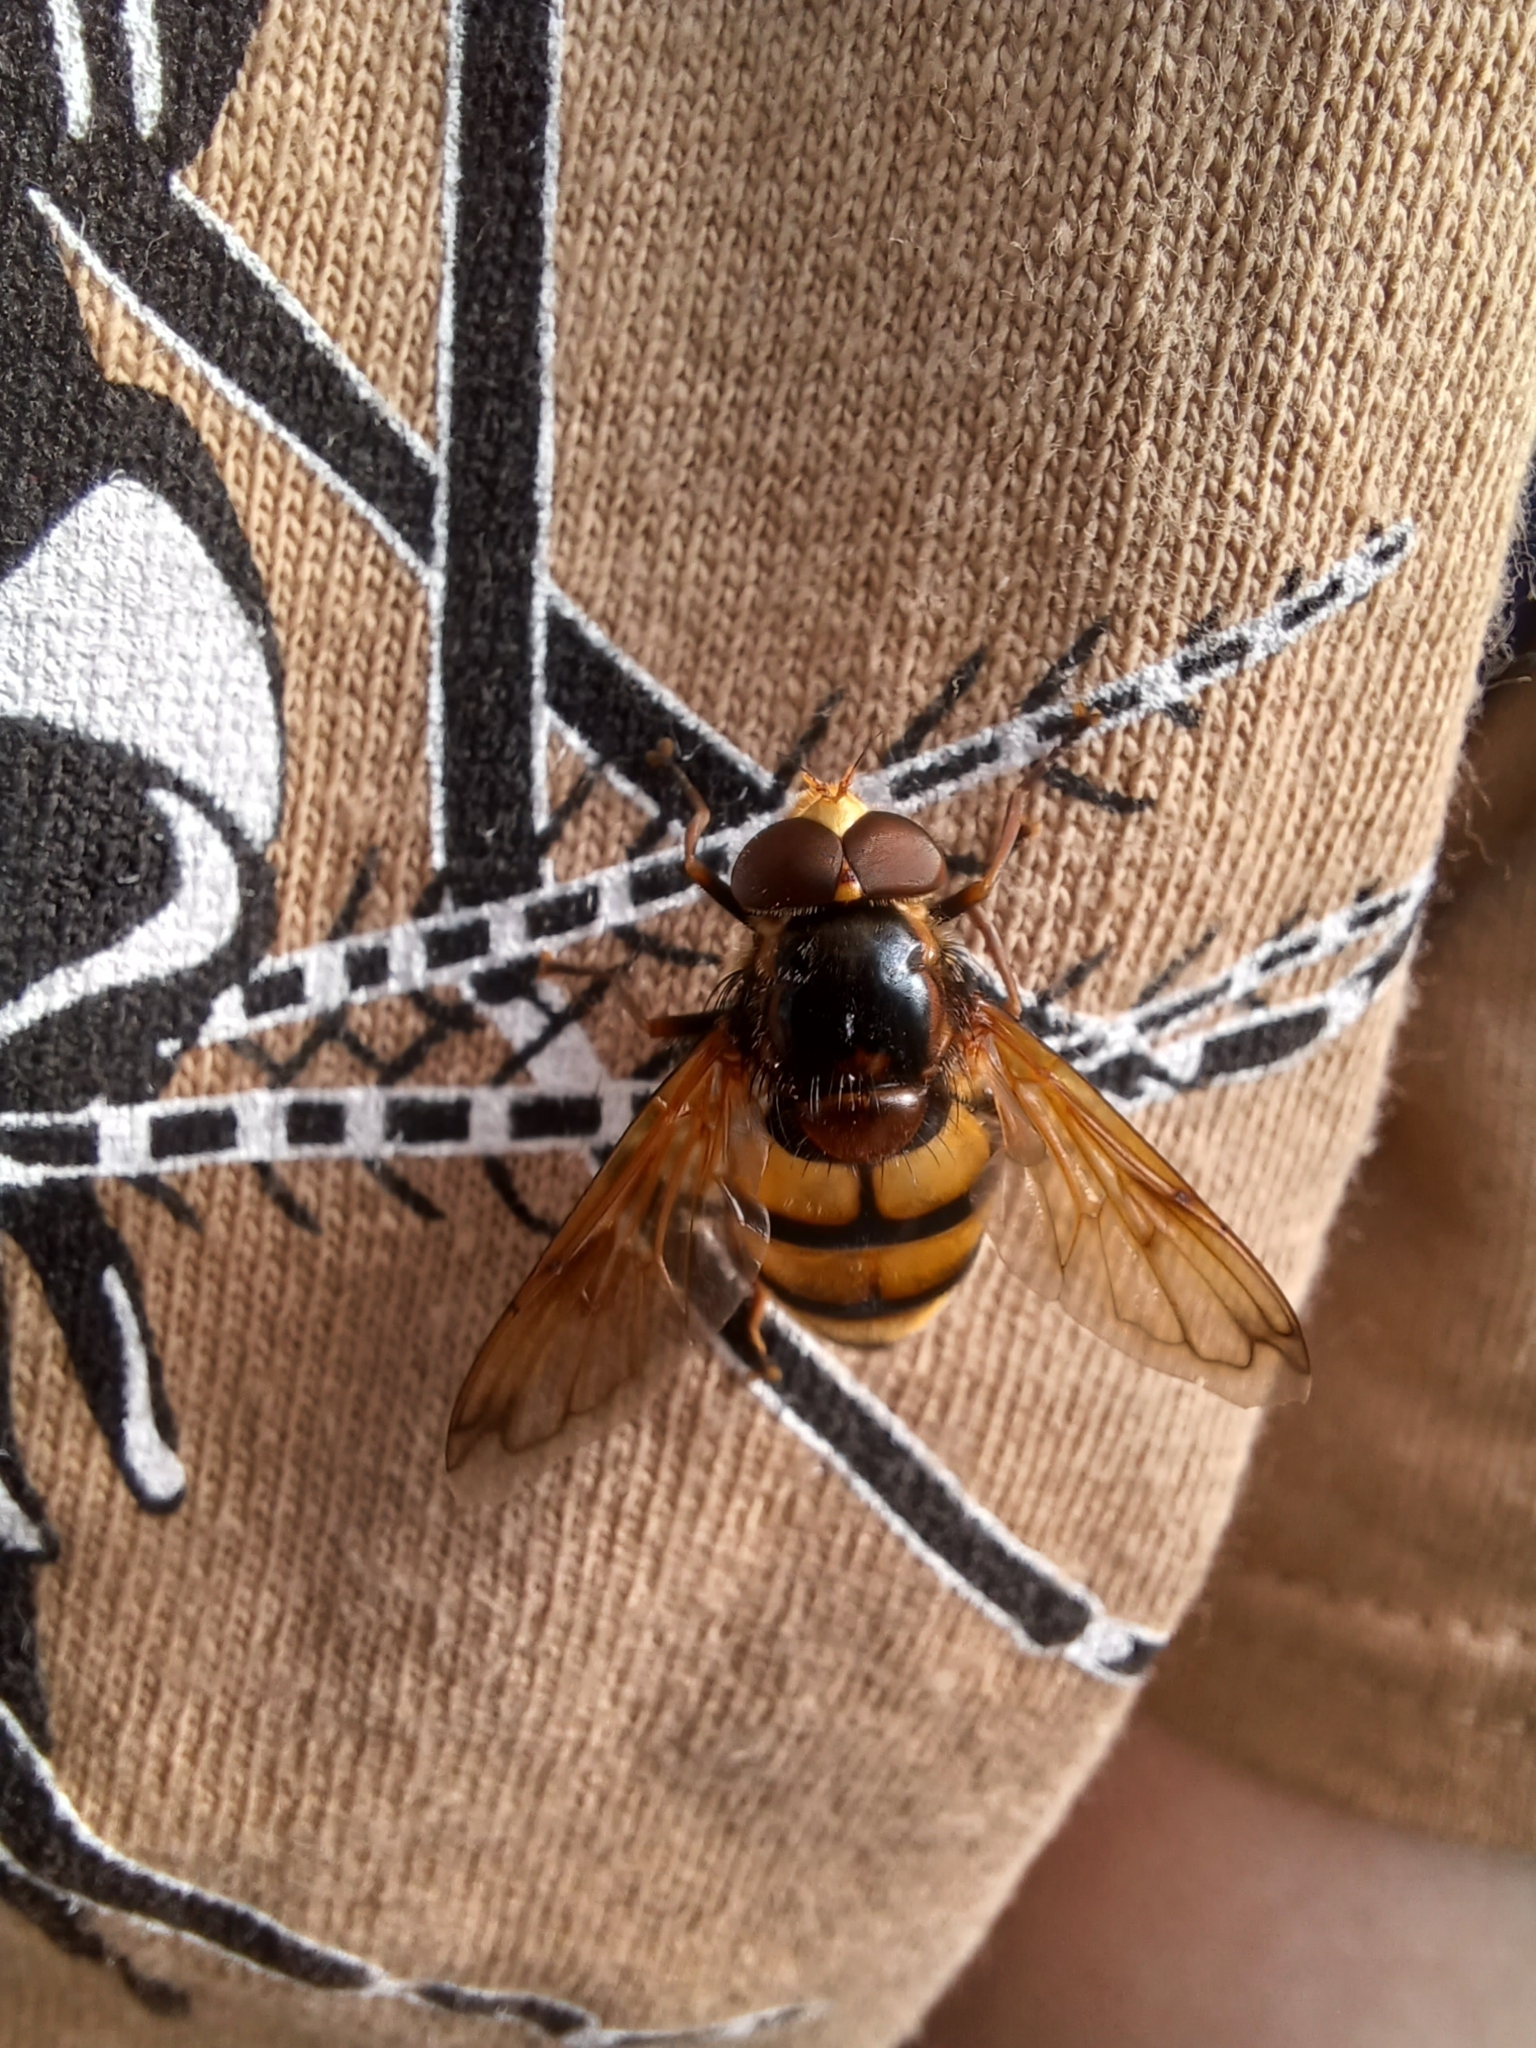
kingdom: Animalia
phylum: Arthropoda
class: Insecta
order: Diptera
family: Syrphidae
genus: Volucella
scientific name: Volucella inanis
